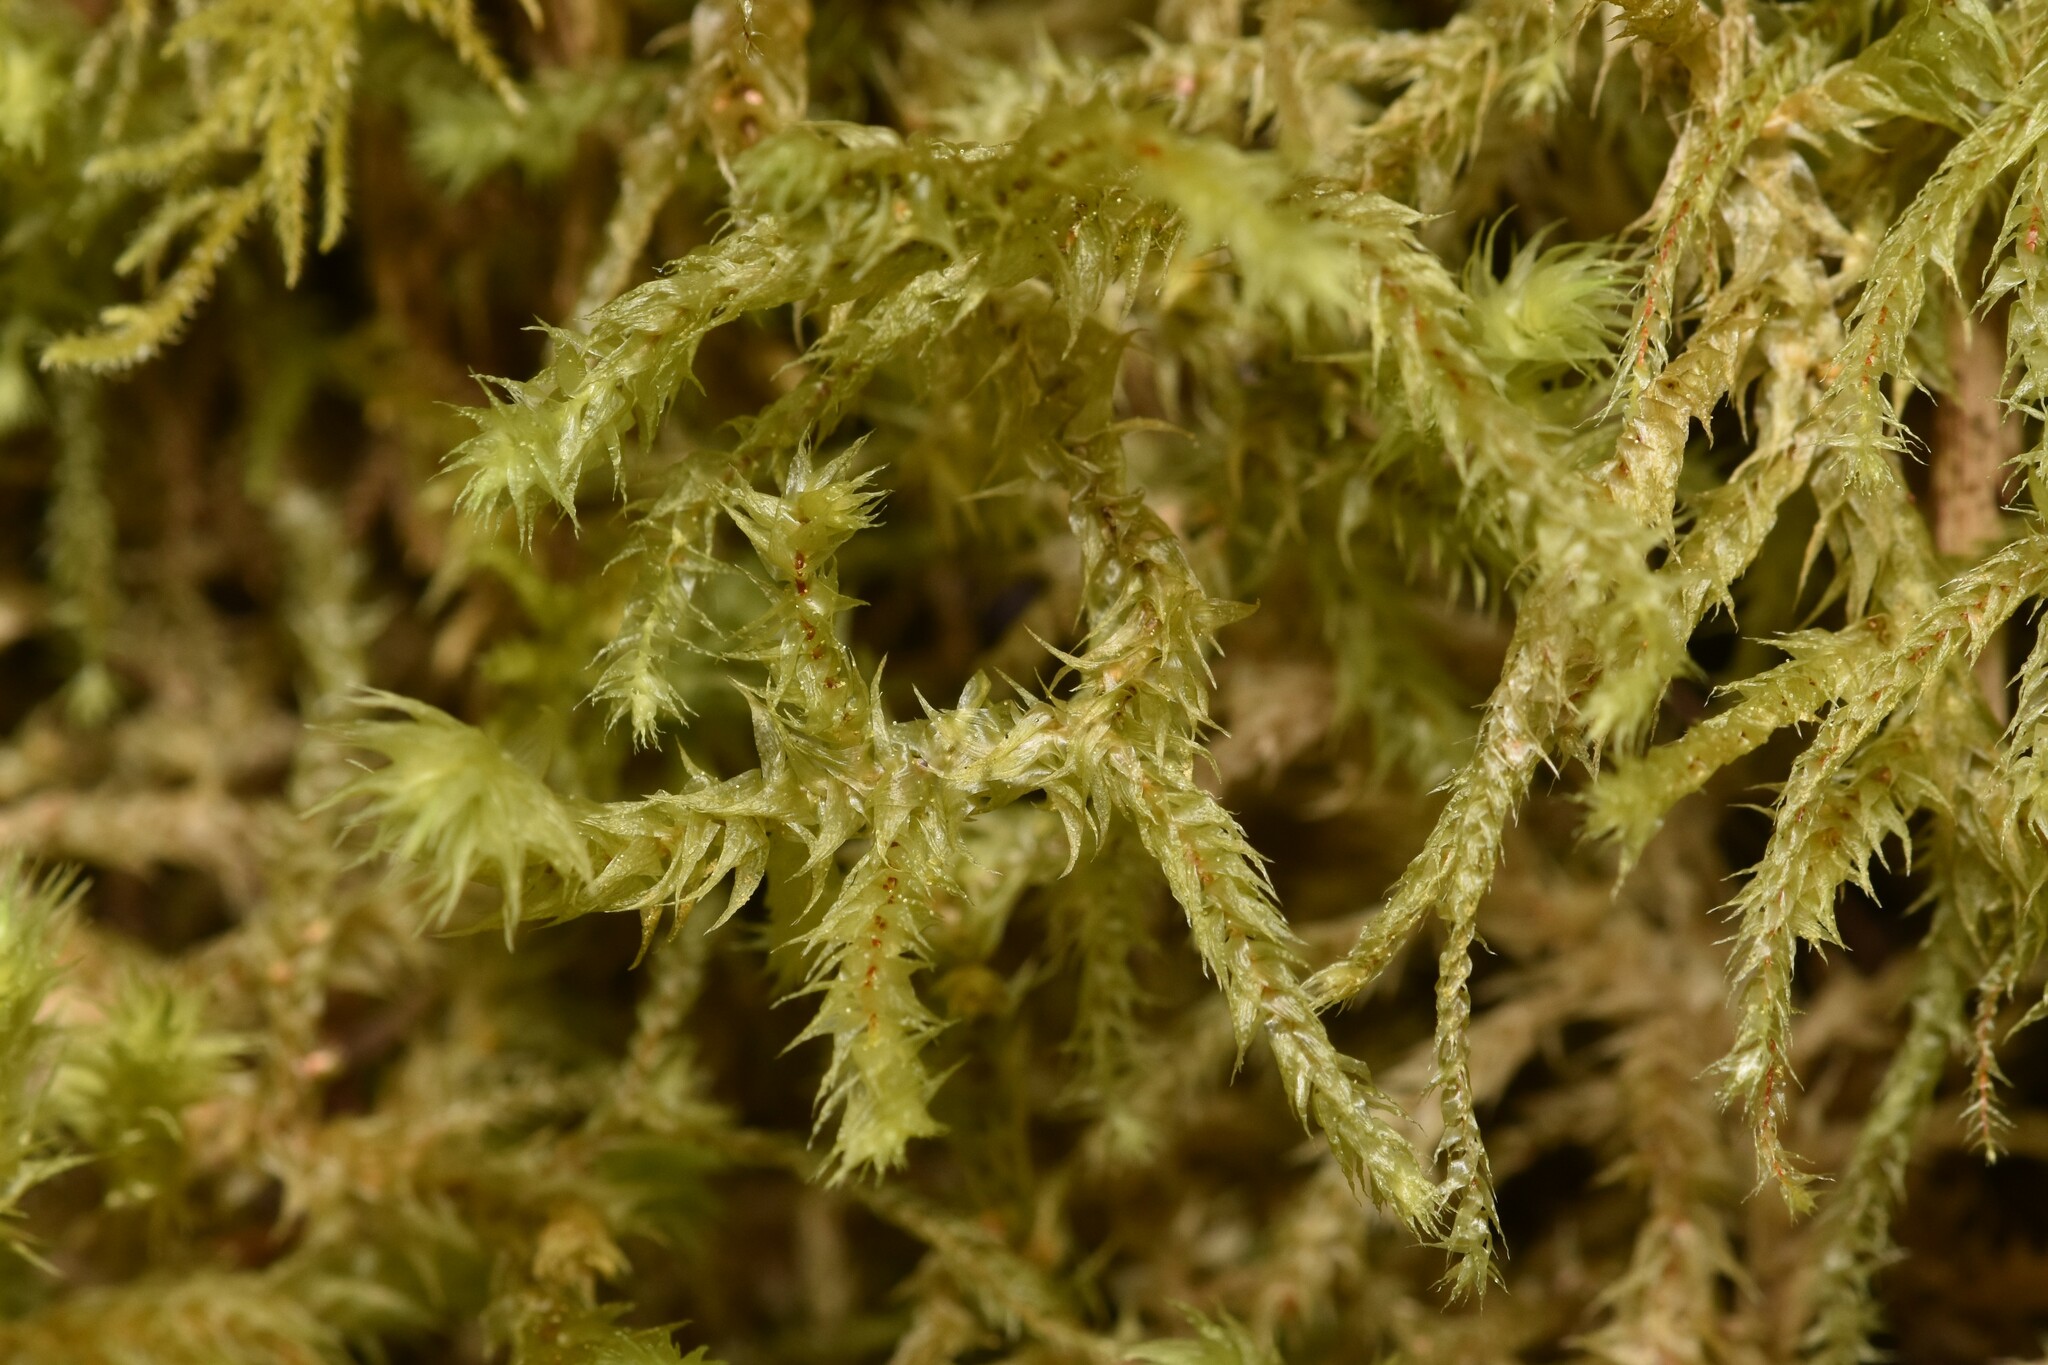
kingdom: Plantae
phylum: Bryophyta
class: Bryopsida
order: Hypnales
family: Hylocomiaceae
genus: Hylocomiadelphus
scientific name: Hylocomiadelphus triquetrus
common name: Rough goose neck moss
